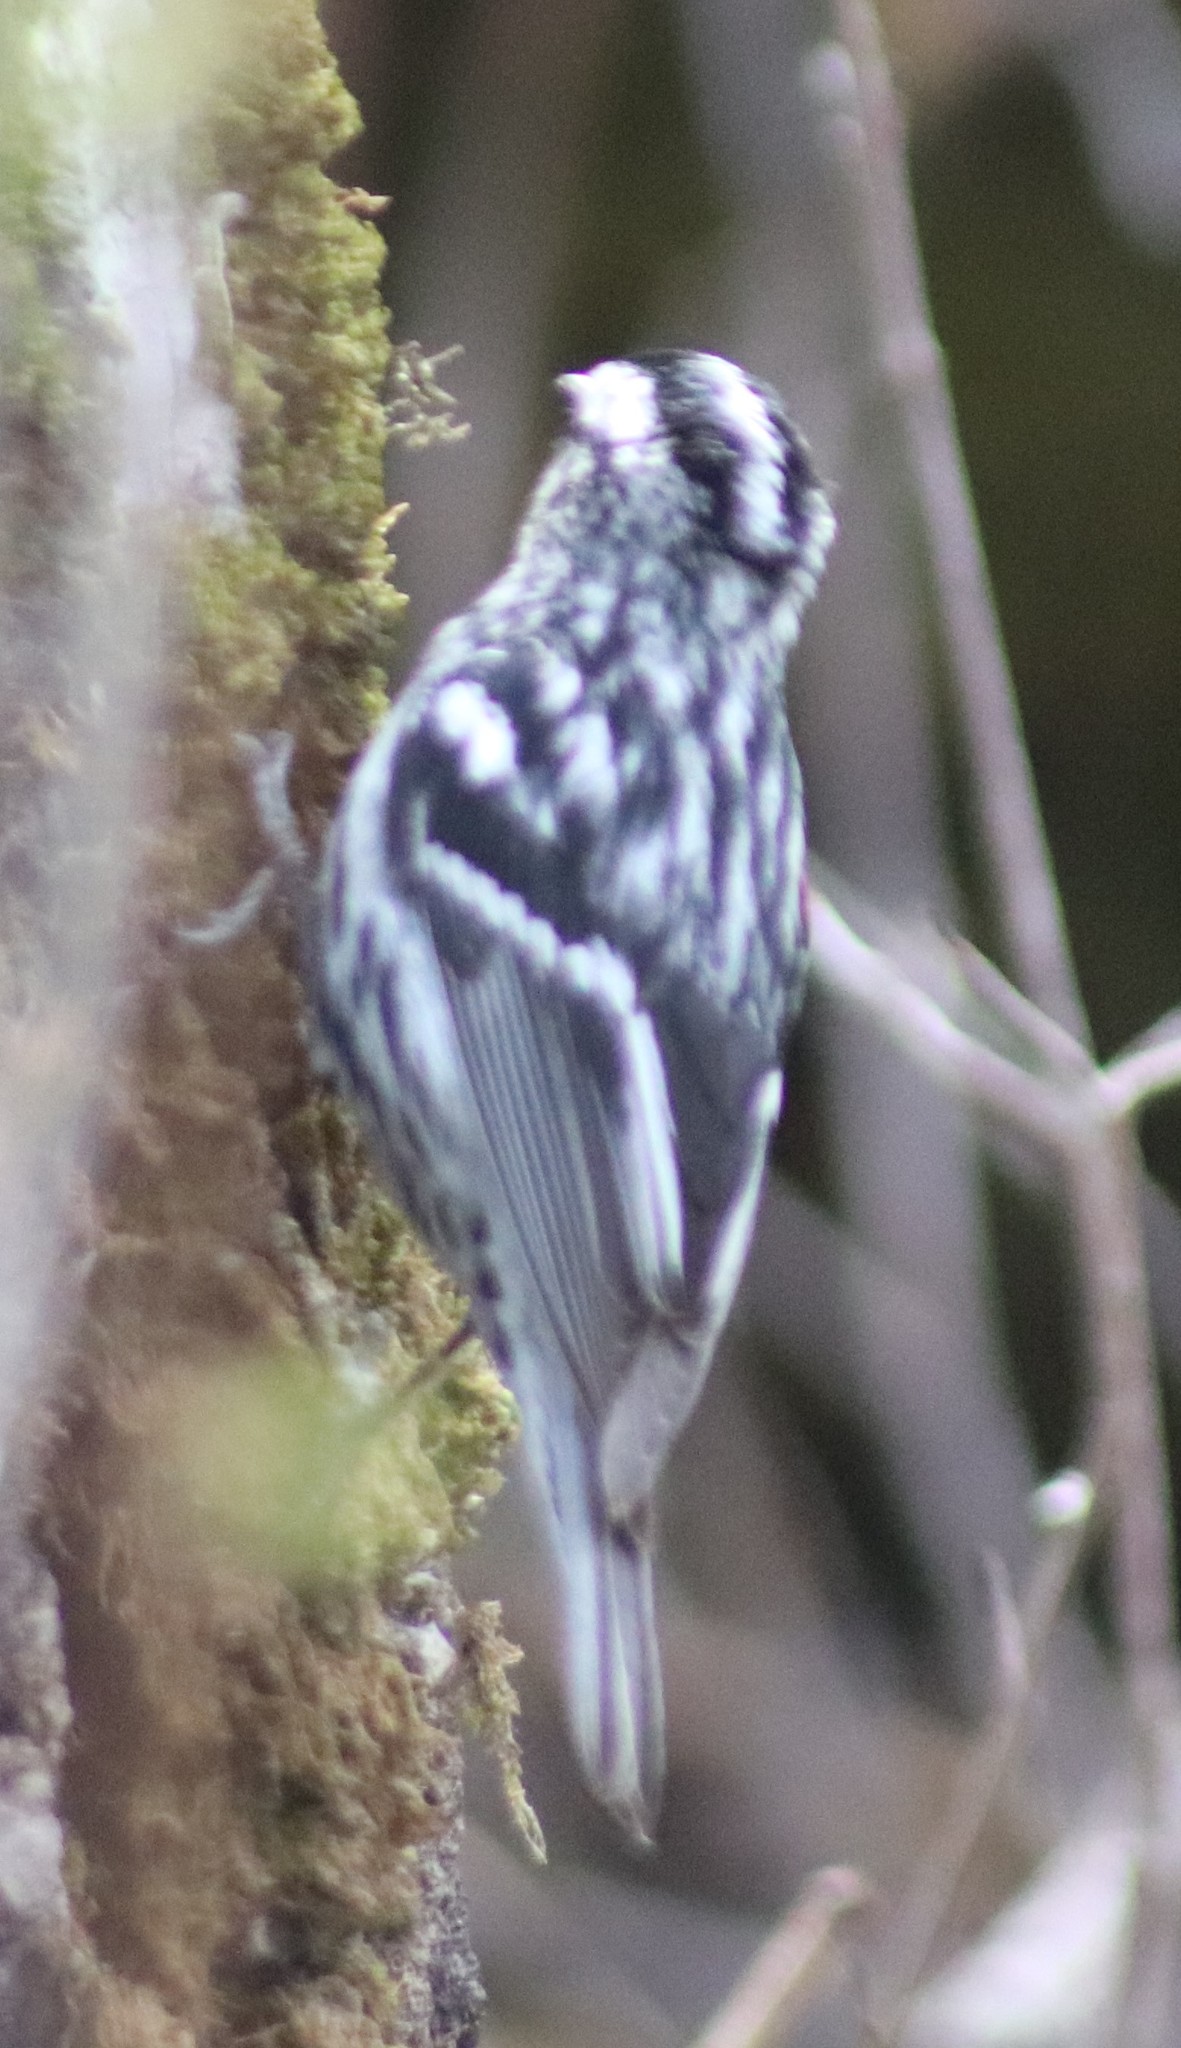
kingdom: Animalia
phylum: Chordata
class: Aves
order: Passeriformes
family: Parulidae
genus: Mniotilta
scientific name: Mniotilta varia
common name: Black-and-white warbler
